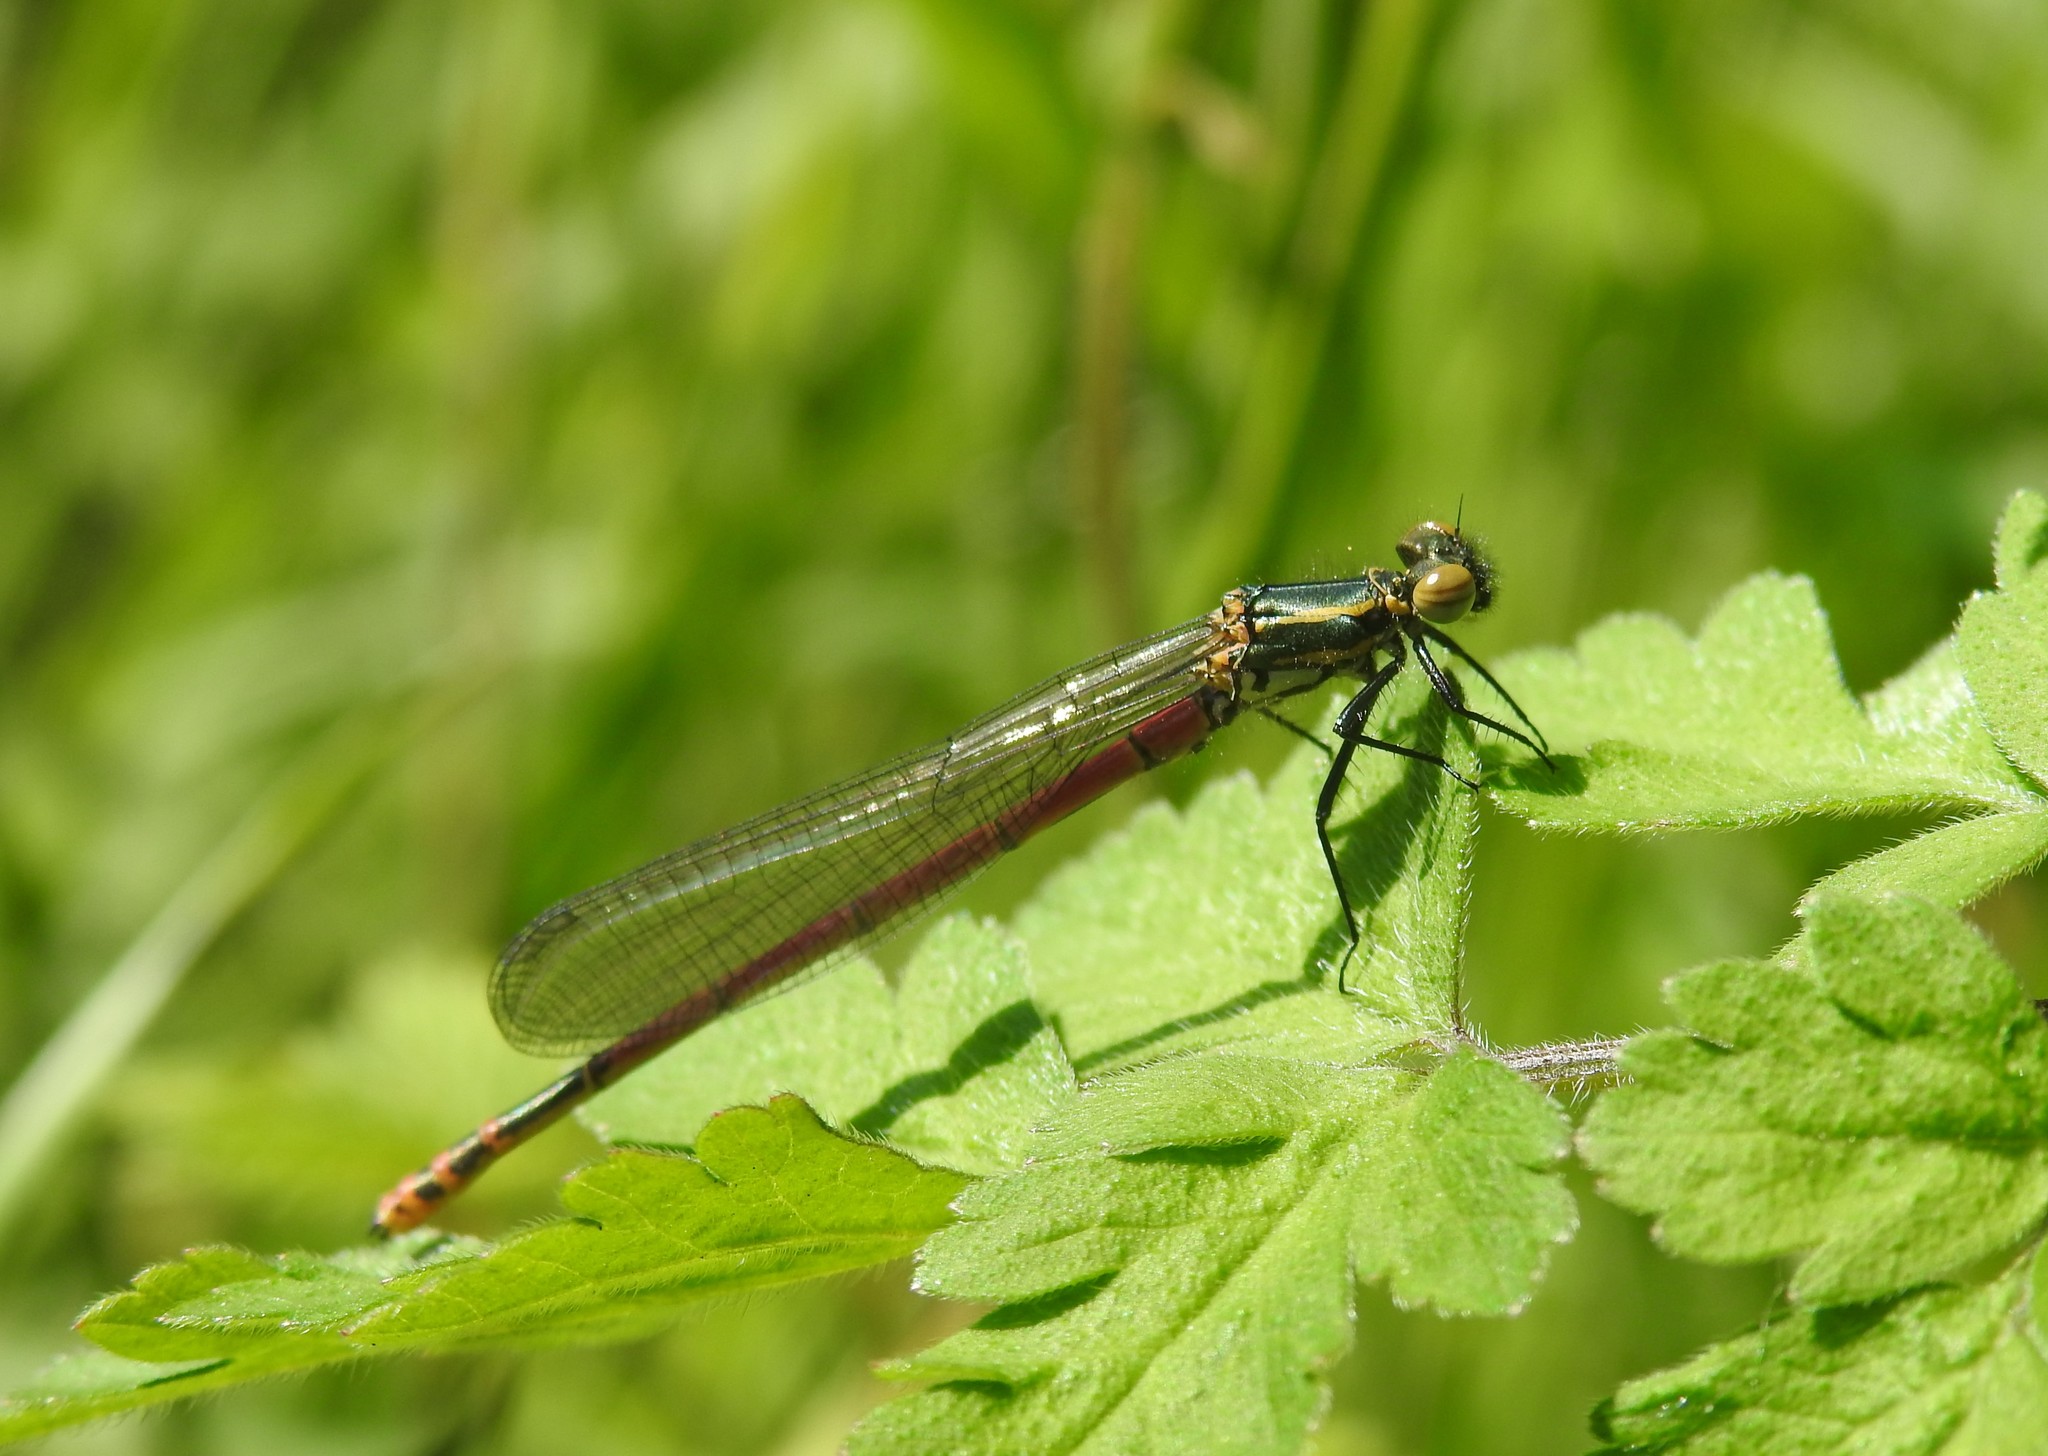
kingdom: Animalia
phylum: Arthropoda
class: Insecta
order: Odonata
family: Coenagrionidae
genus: Pyrrhosoma
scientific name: Pyrrhosoma nymphula
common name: Large red damsel
